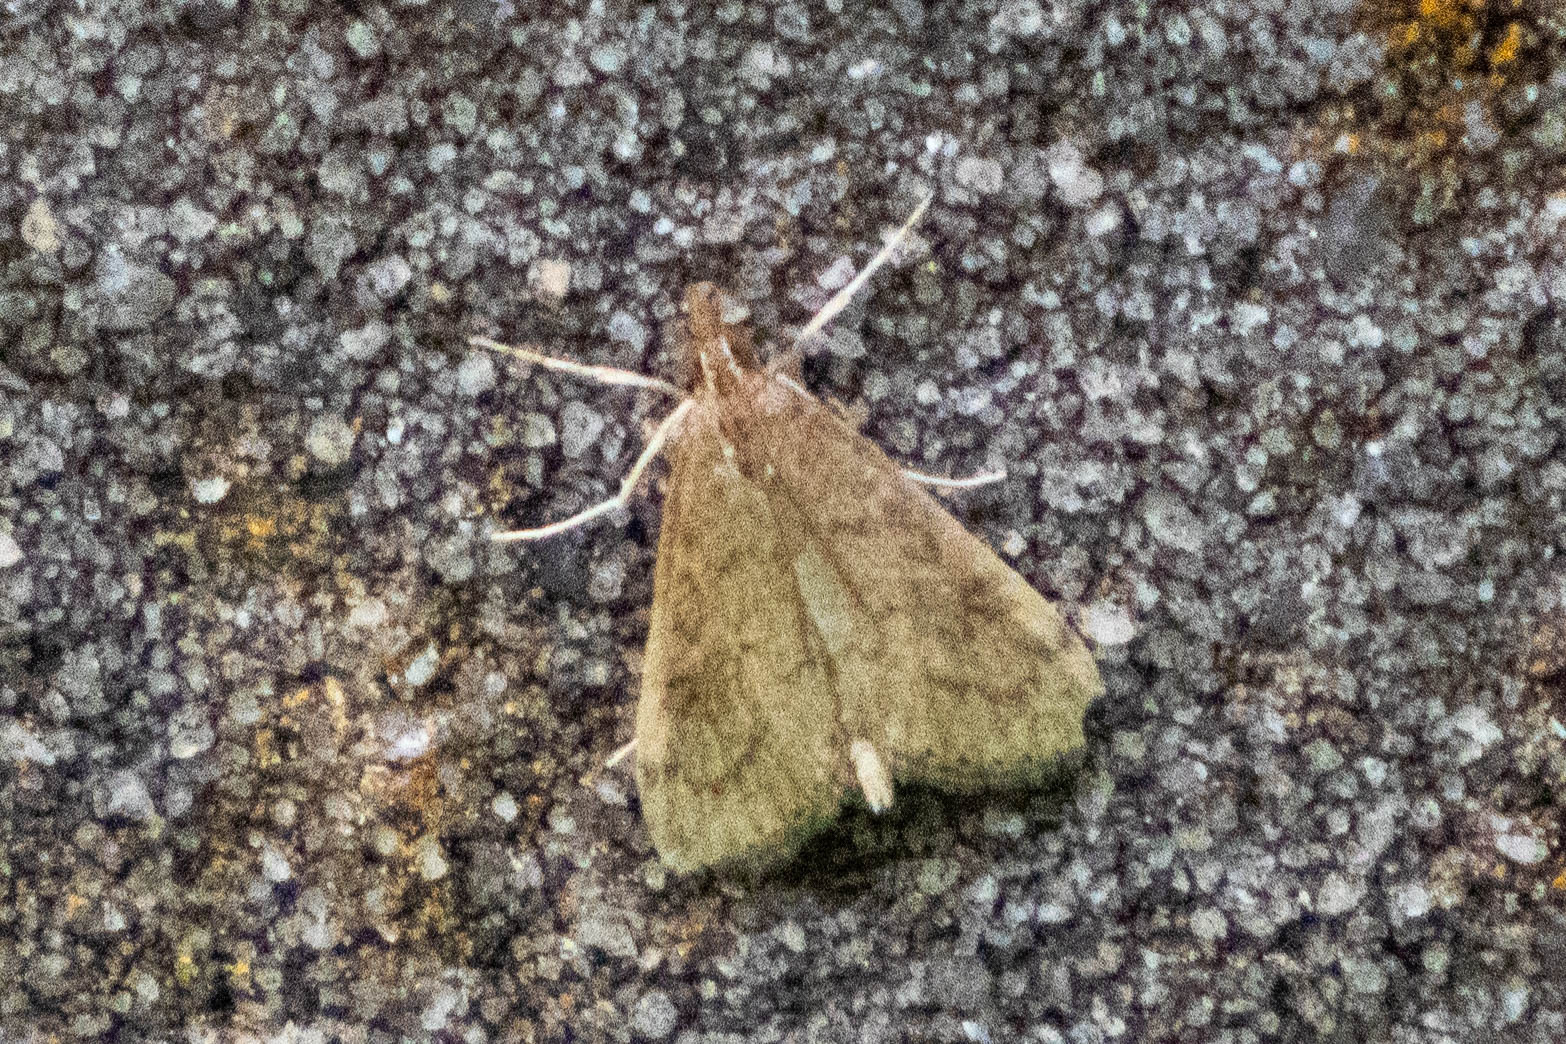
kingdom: Animalia
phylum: Arthropoda
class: Insecta
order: Lepidoptera
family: Crambidae
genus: Udea
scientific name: Udea rubigalis
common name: Celery leaftier moth
